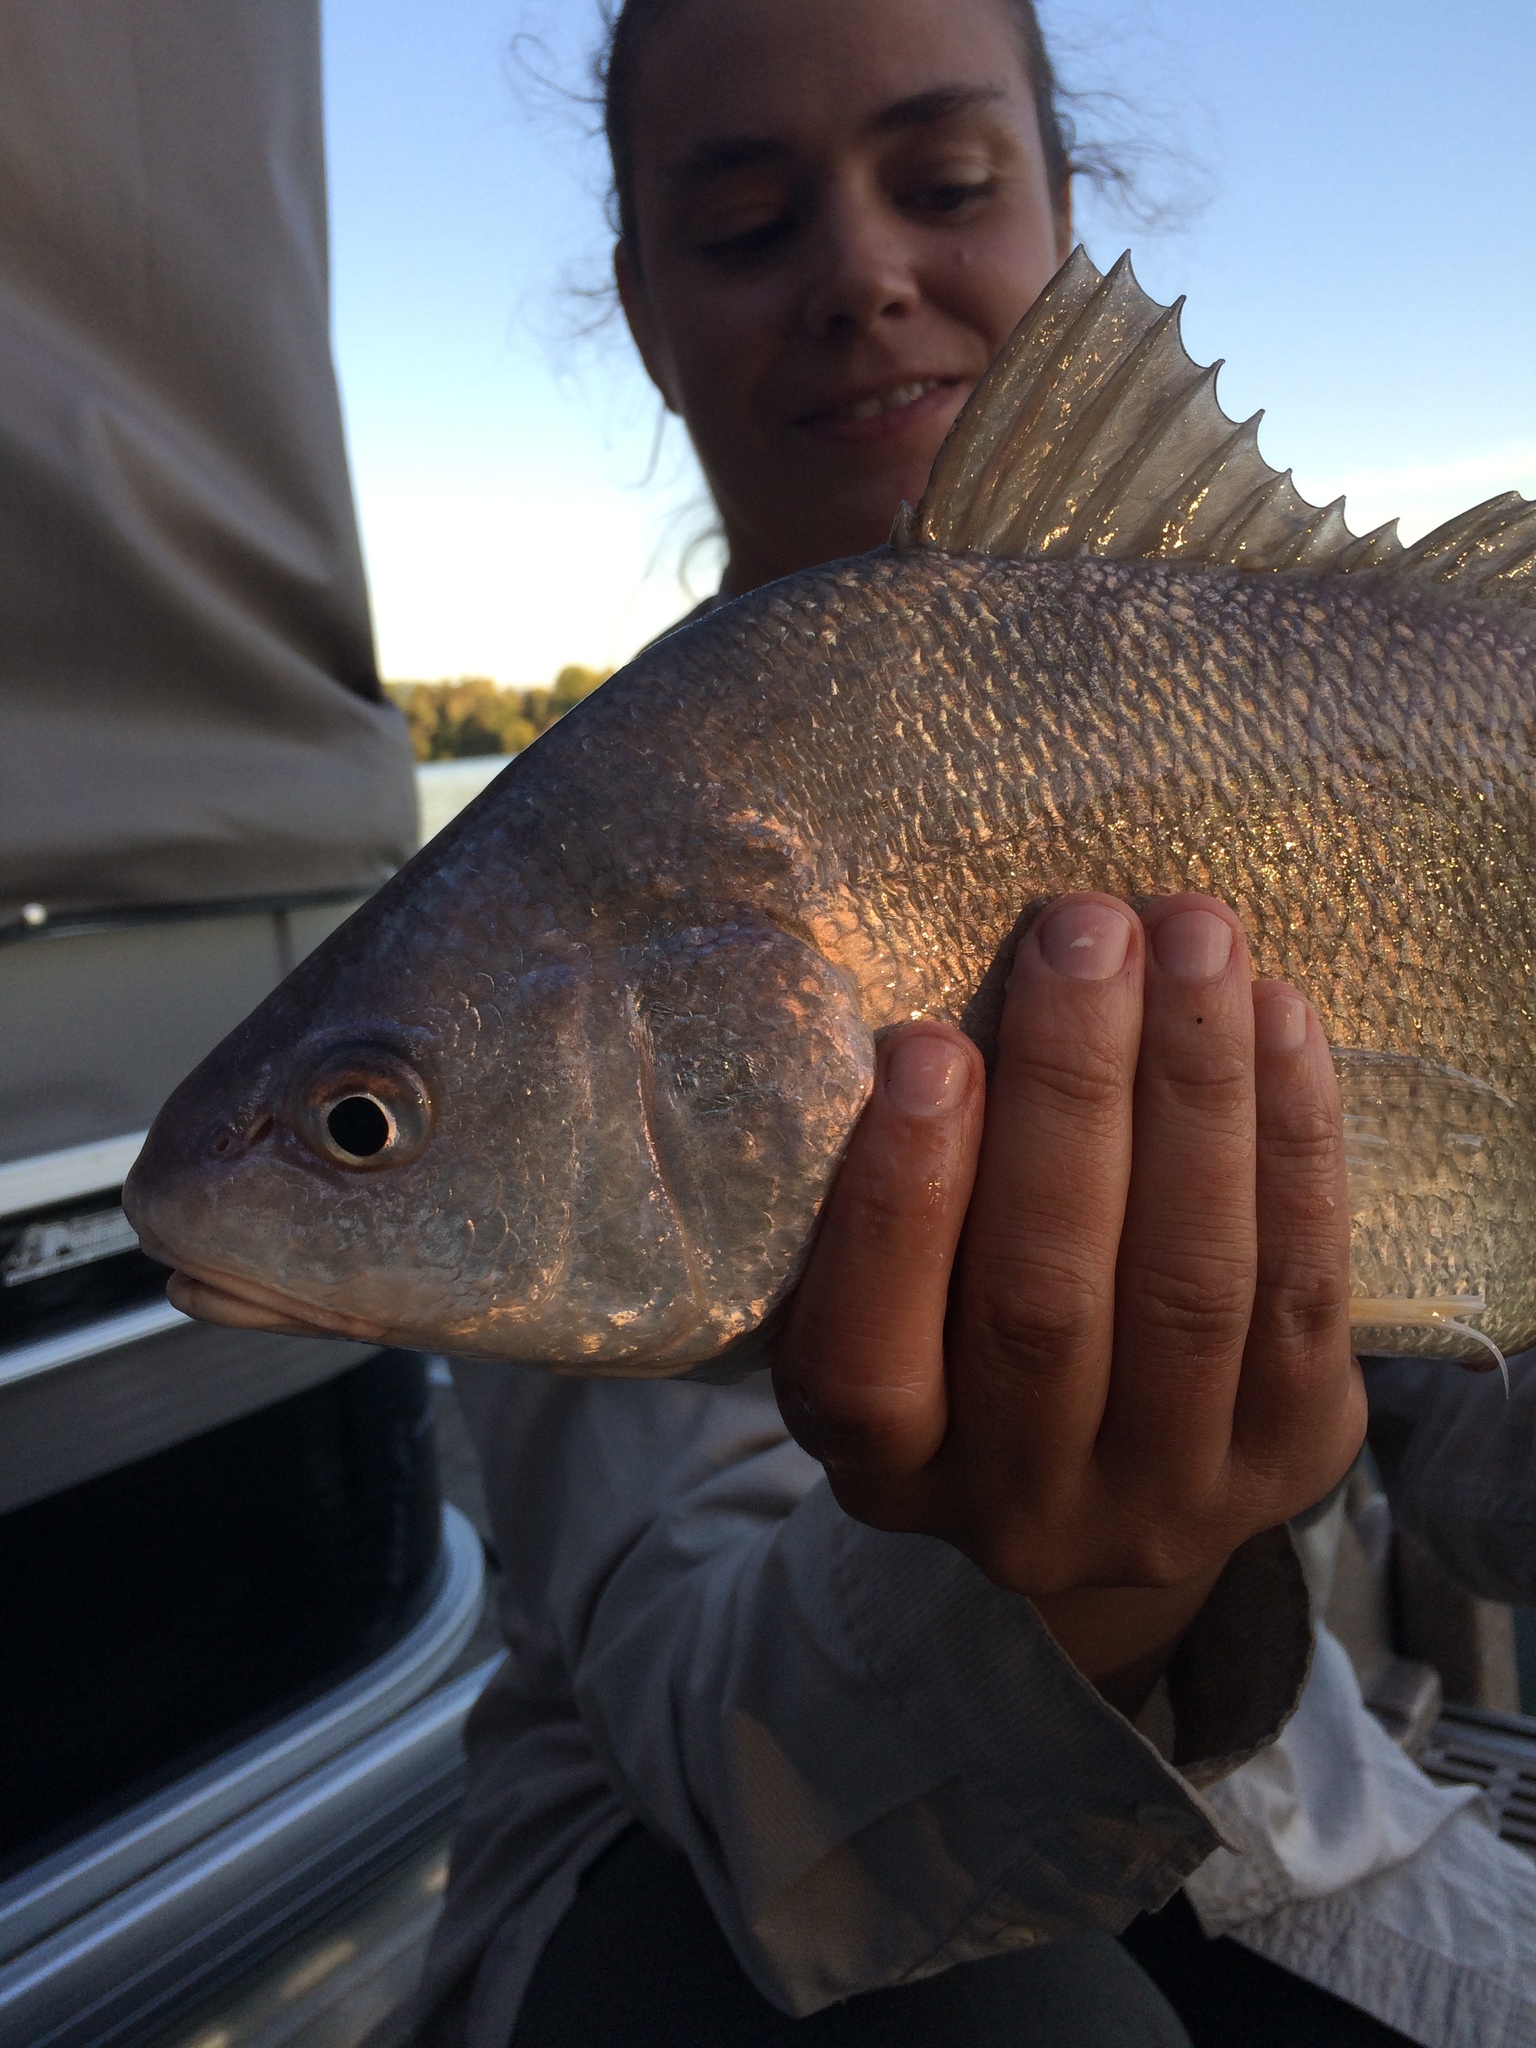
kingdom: Animalia
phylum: Chordata
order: Perciformes
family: Sciaenidae
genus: Aplodinotus
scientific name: Aplodinotus grunniens
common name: Freshwater drum
